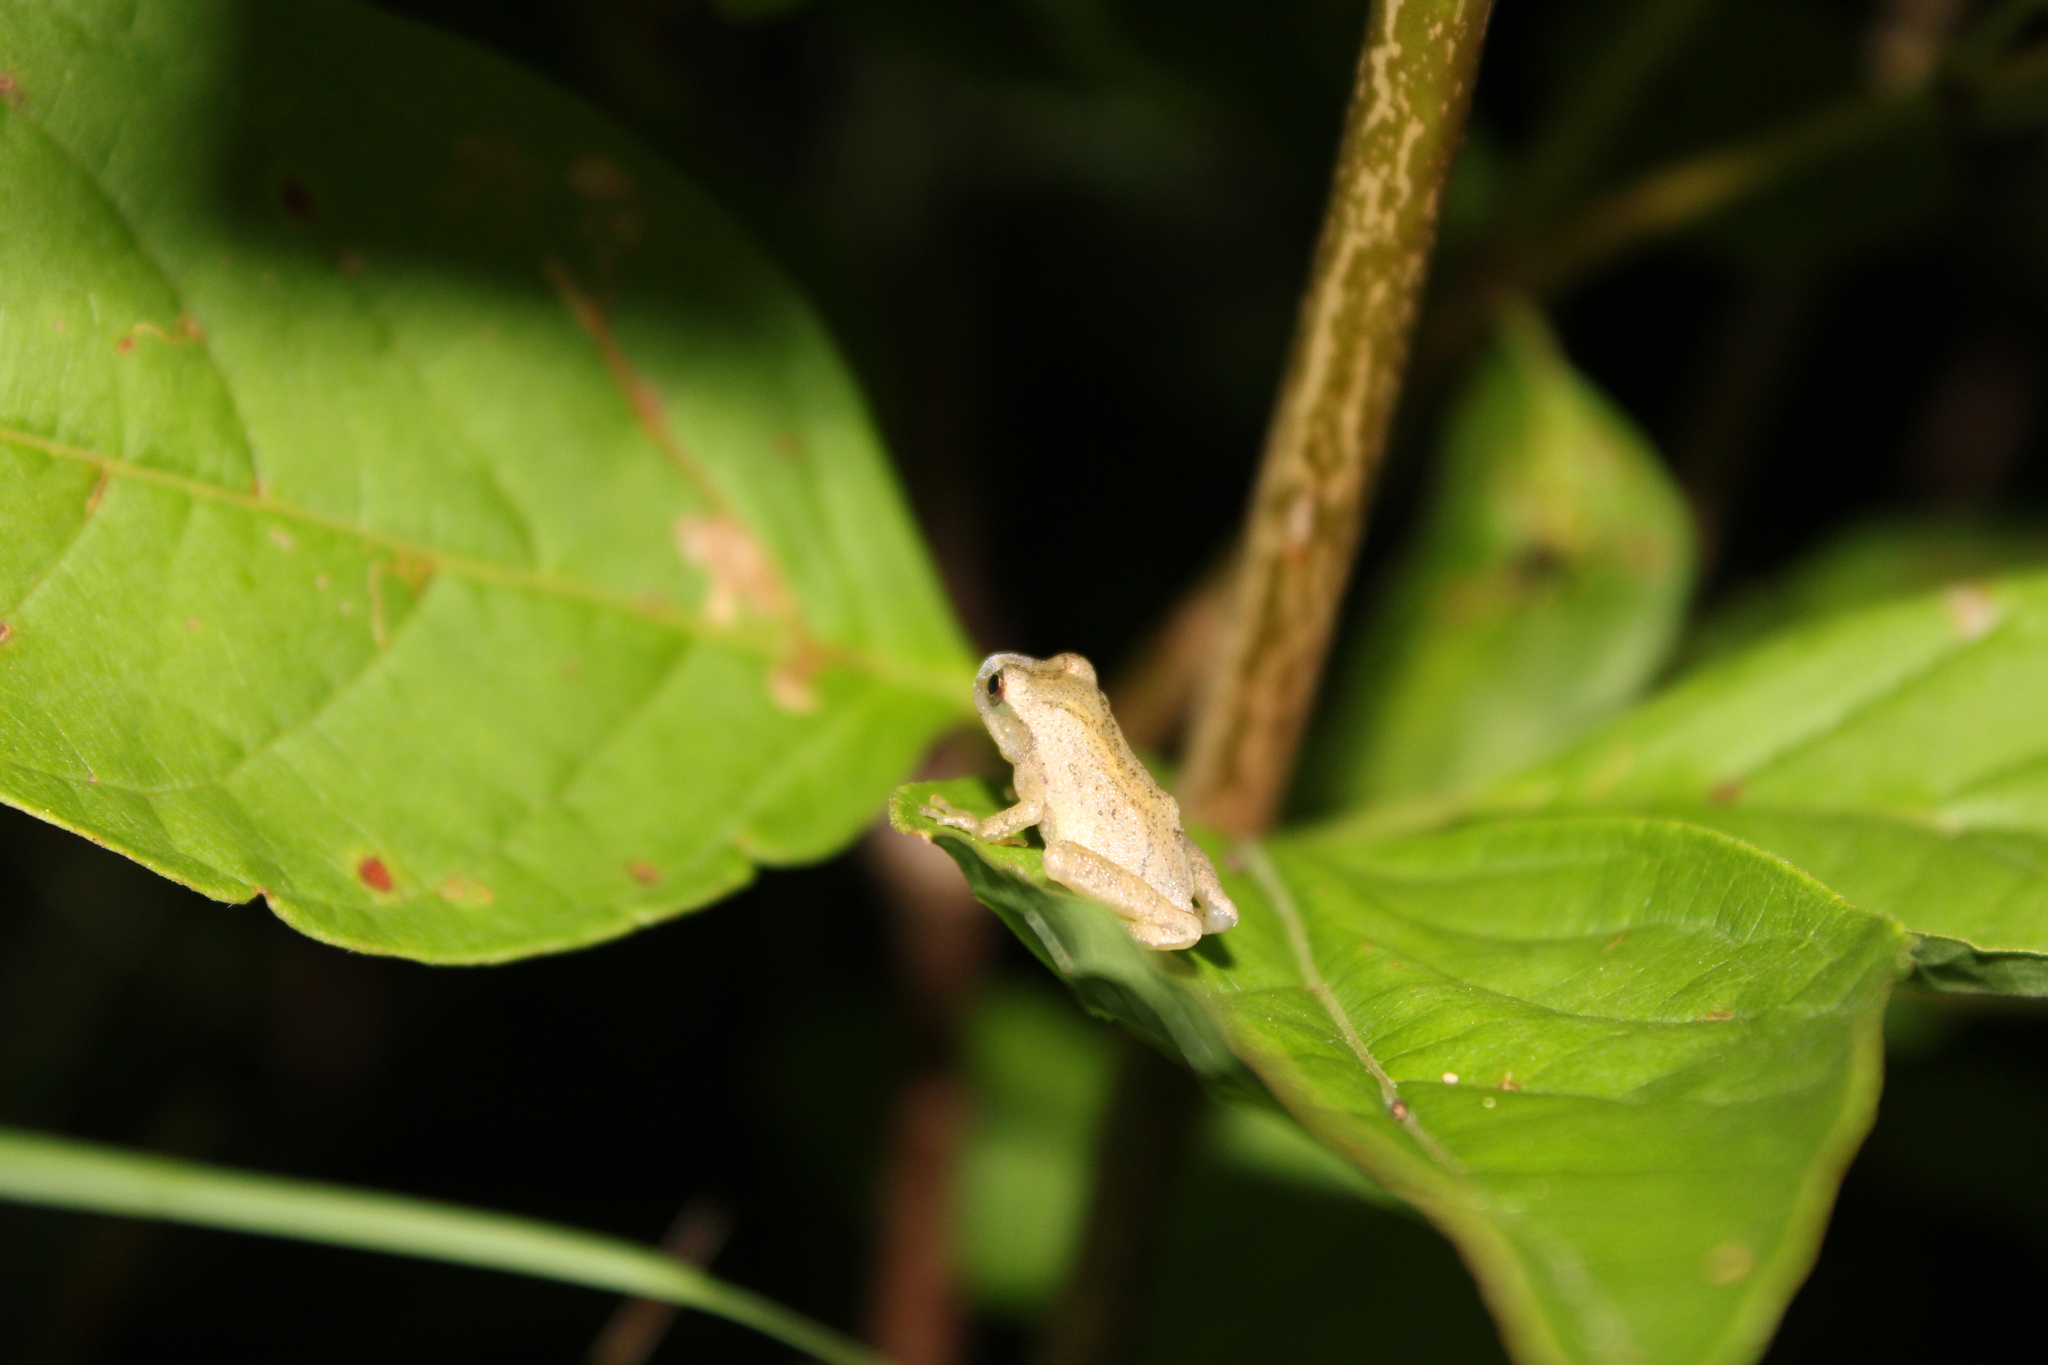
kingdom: Animalia
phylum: Chordata
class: Amphibia
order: Anura
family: Hylidae
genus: Pseudacris
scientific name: Pseudacris crucifer
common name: Spring peeper
